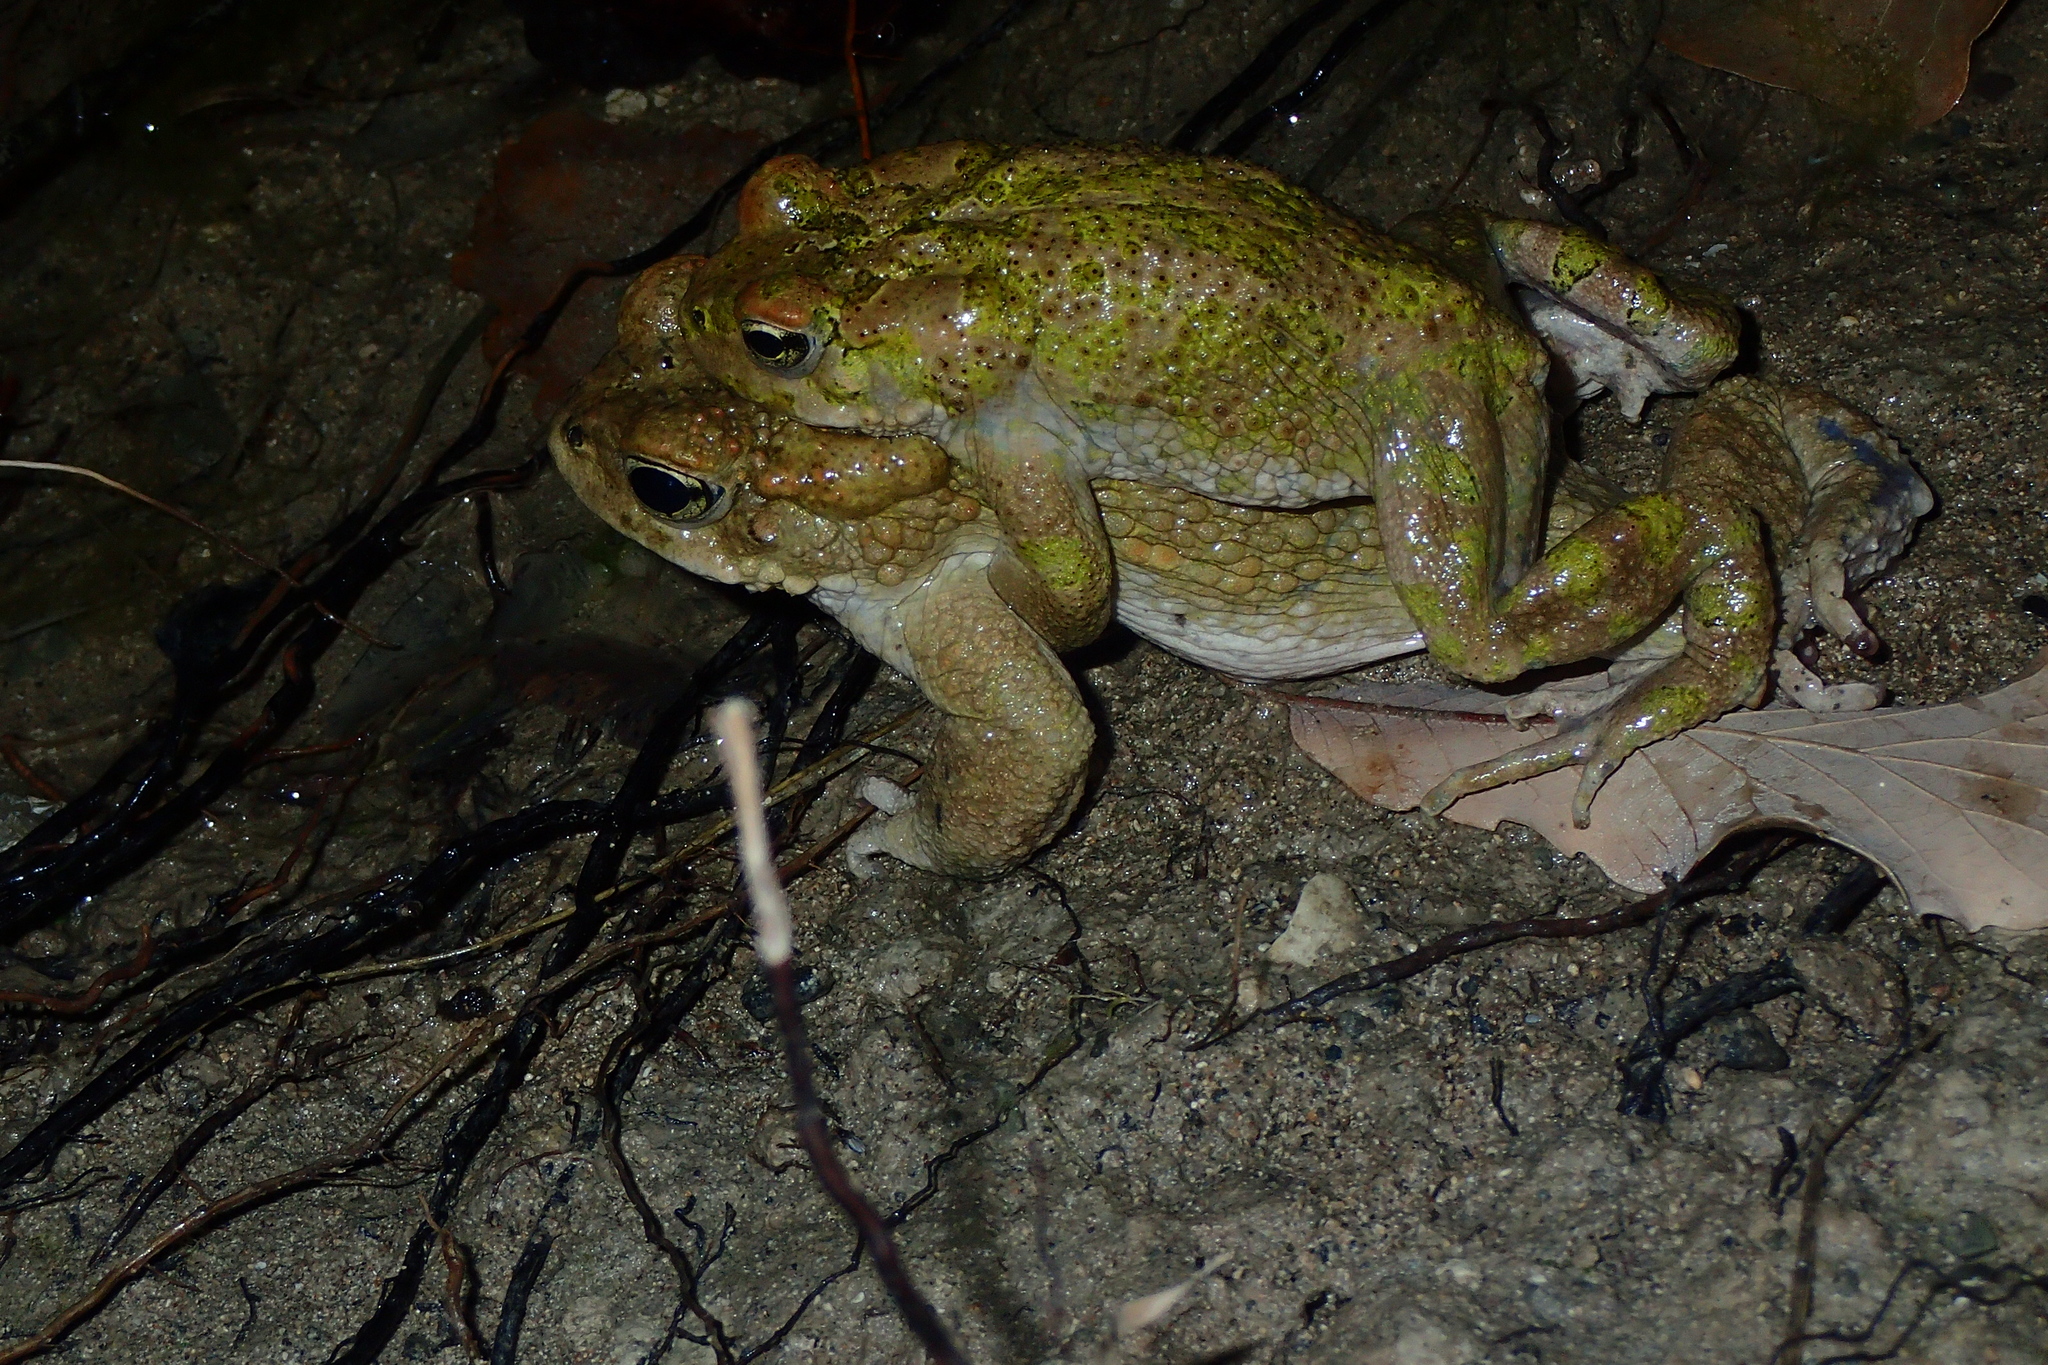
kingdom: Animalia
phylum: Chordata
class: Amphibia
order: Anura
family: Bufonidae
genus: Bufotes
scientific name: Bufotes cypriensis
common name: Cyprus green toad
